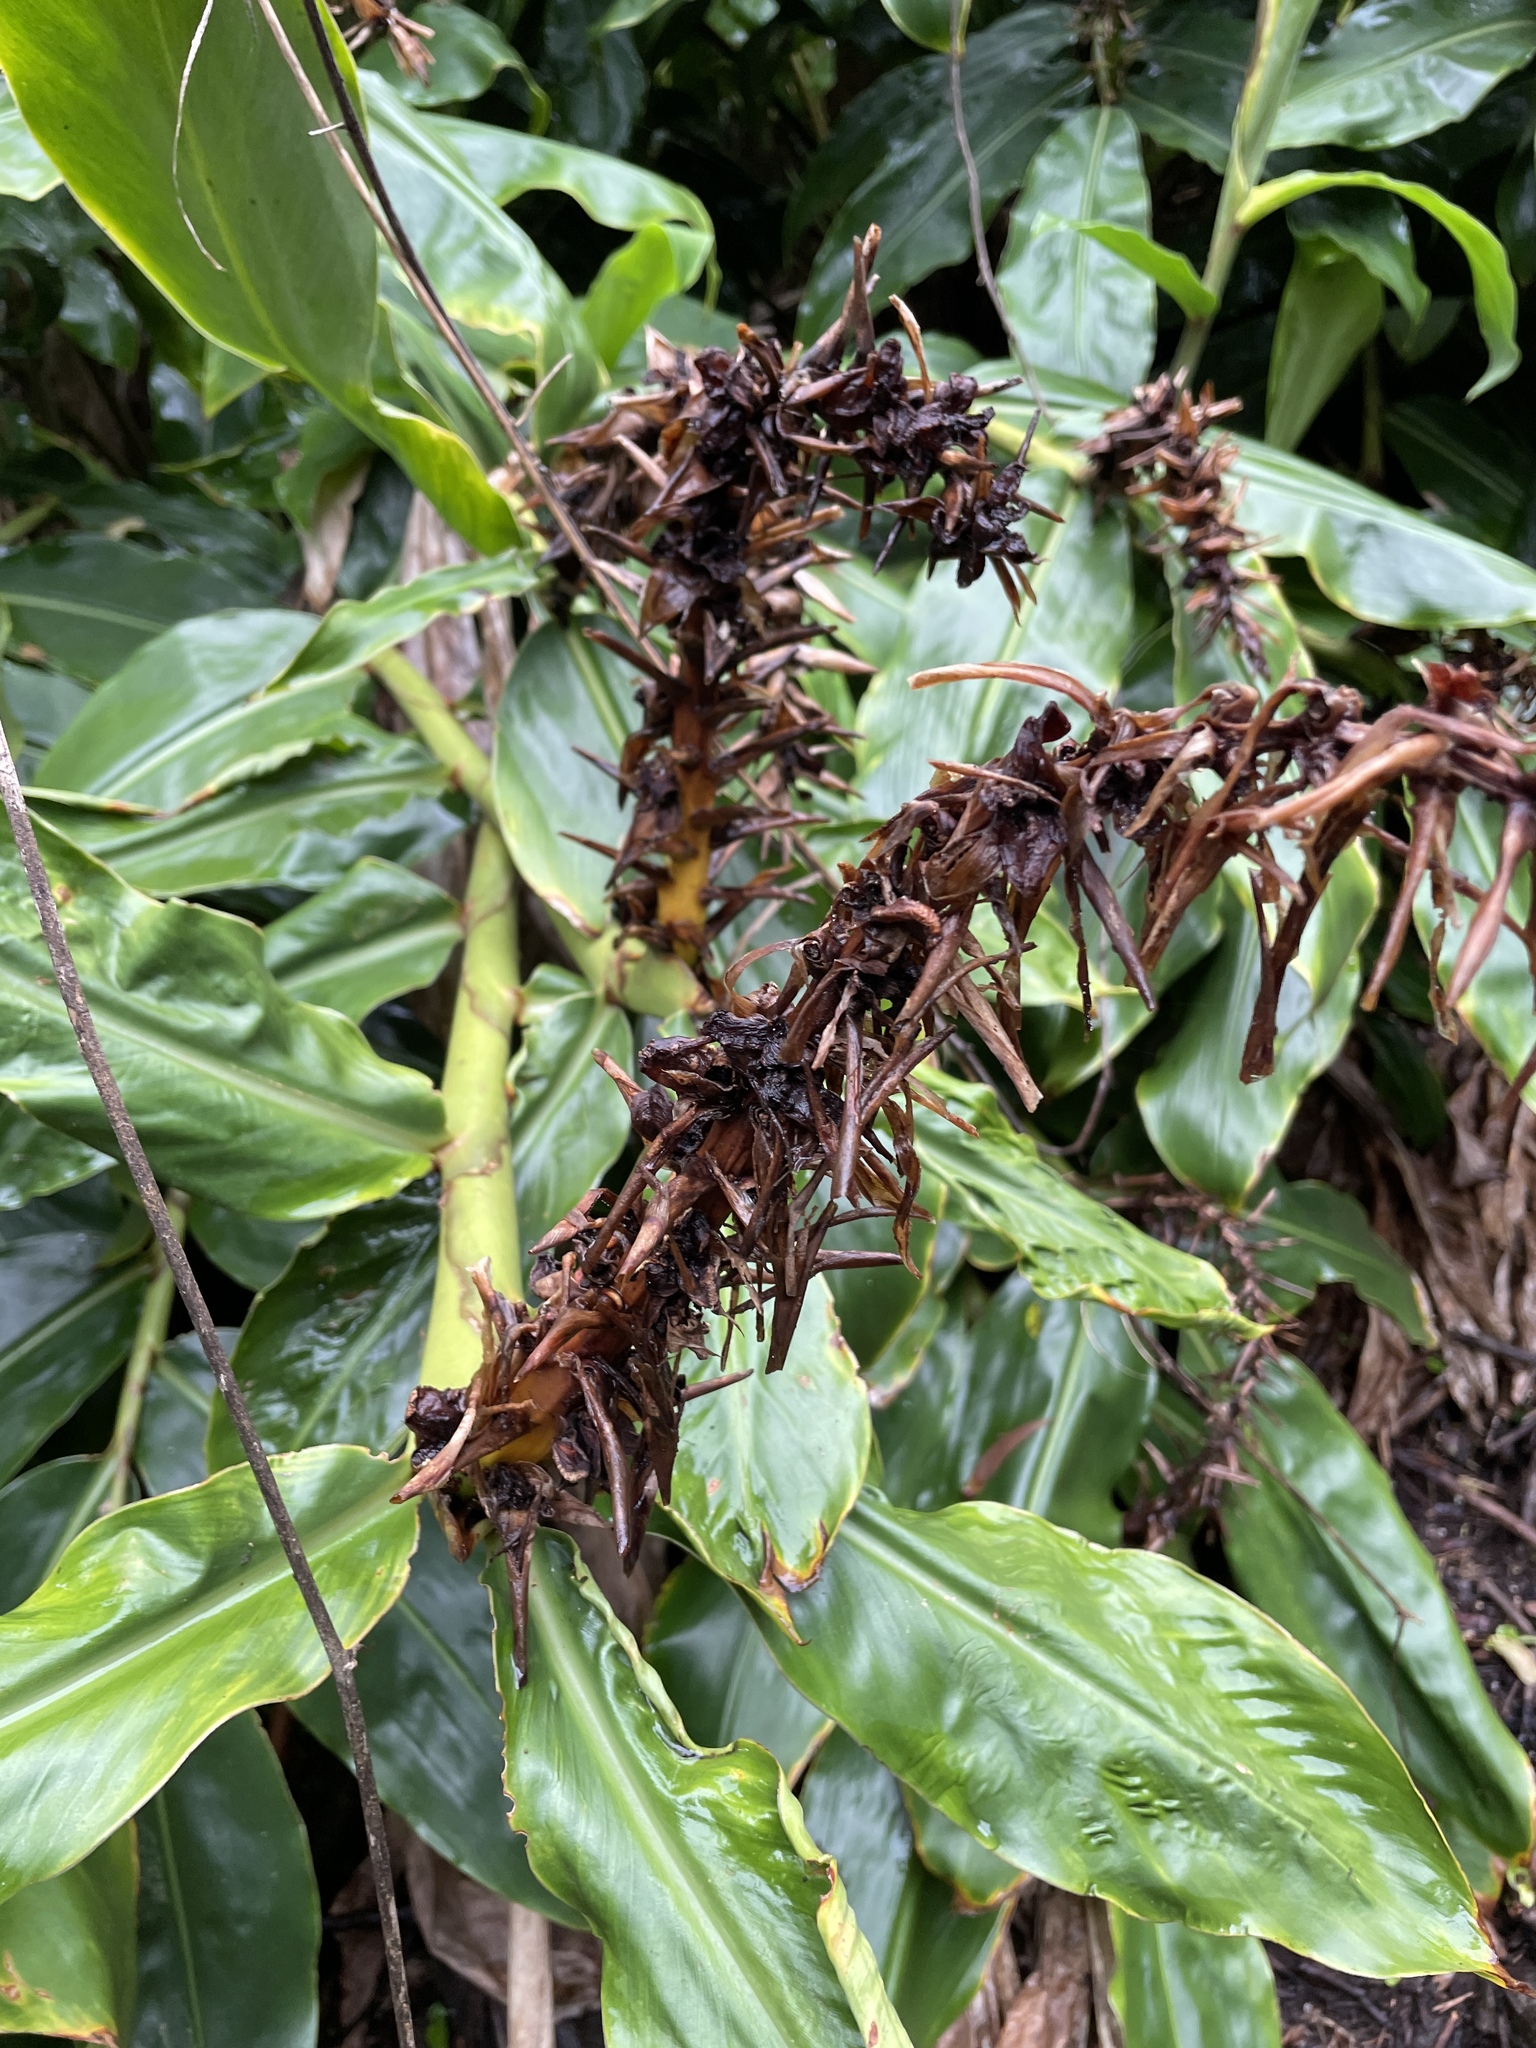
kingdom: Plantae
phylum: Tracheophyta
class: Liliopsida
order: Zingiberales
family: Zingiberaceae
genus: Hedychium
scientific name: Hedychium gardnerianum
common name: Himalayan ginger
